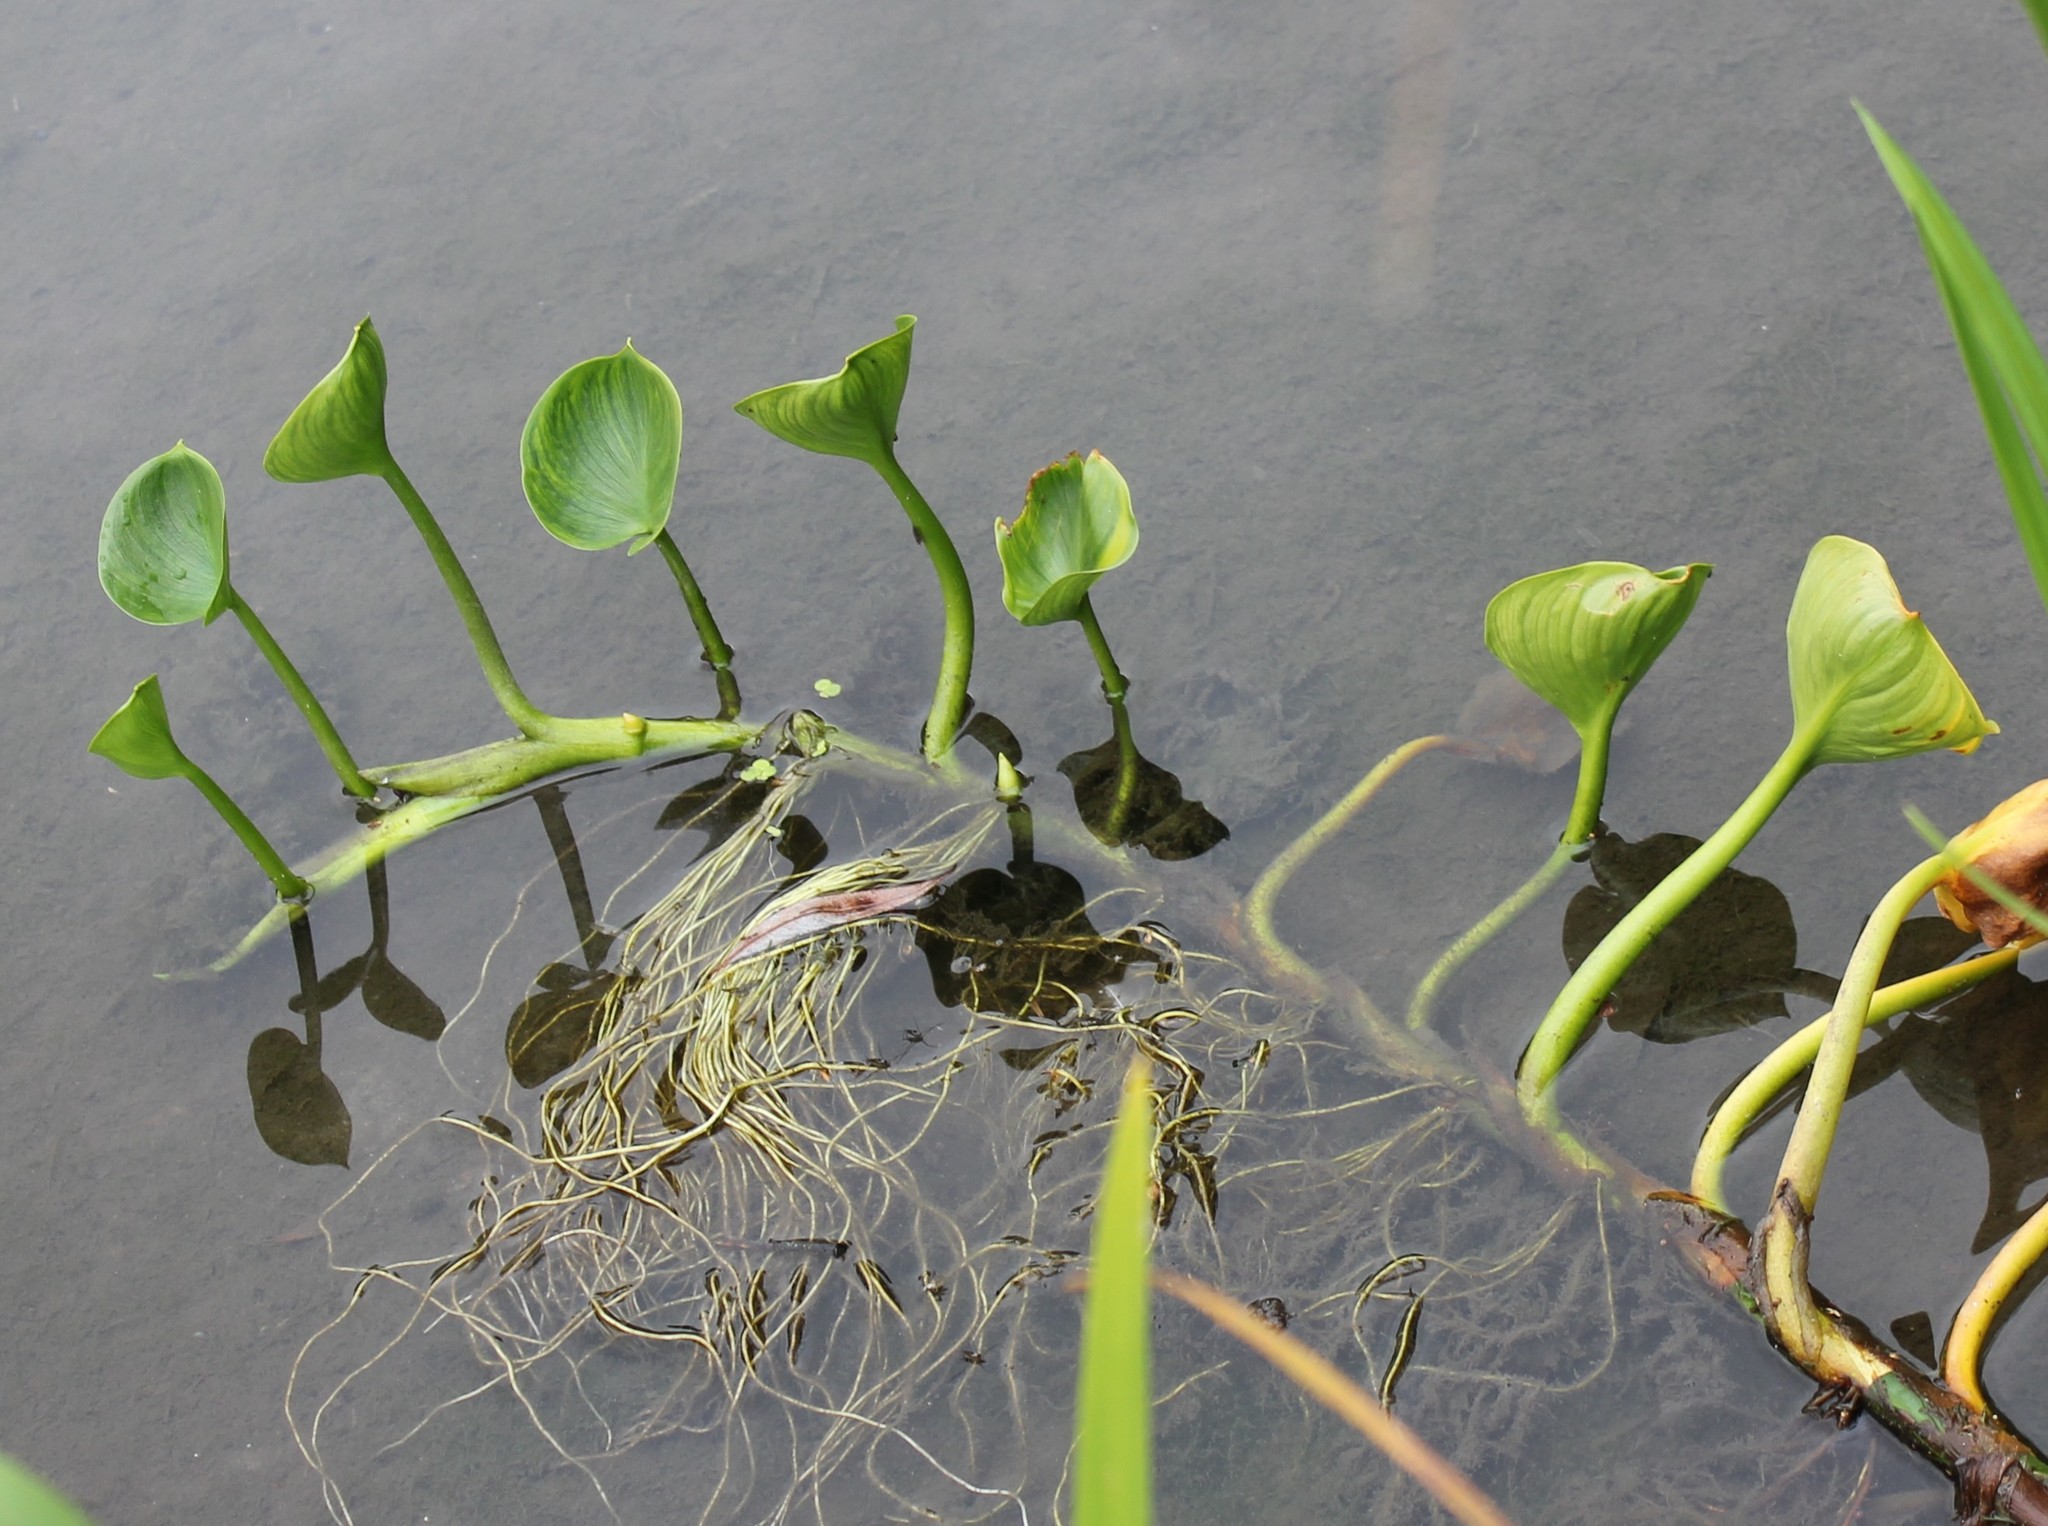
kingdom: Plantae
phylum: Tracheophyta
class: Liliopsida
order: Alismatales
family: Araceae
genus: Calla
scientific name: Calla palustris
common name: Bog arum
